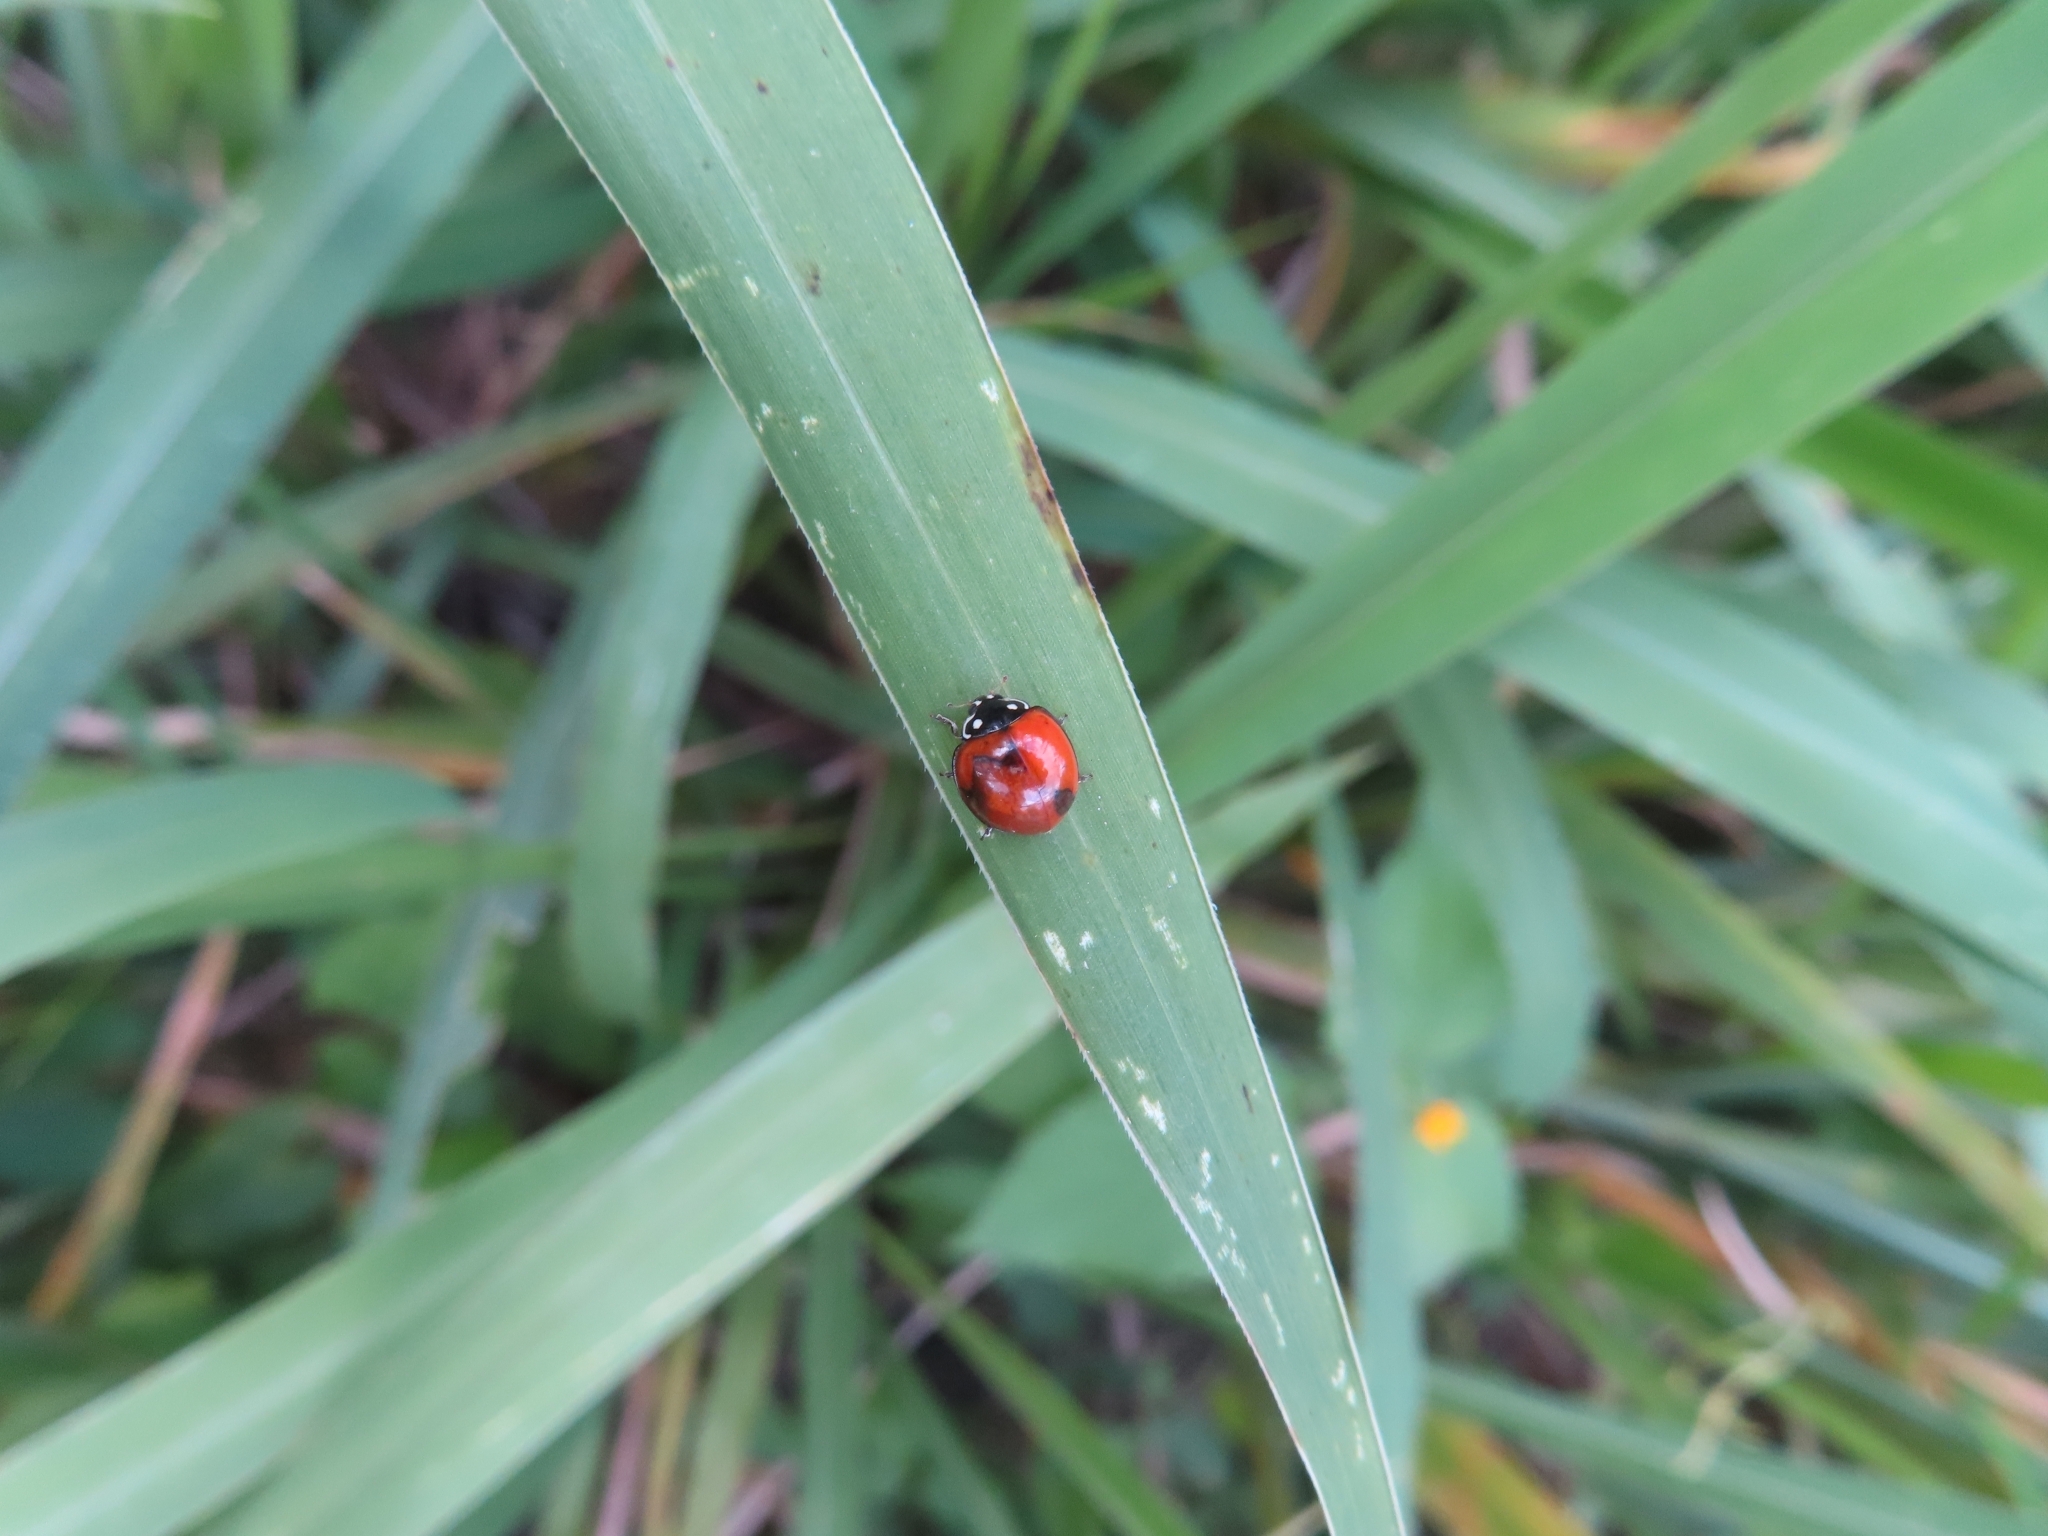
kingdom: Animalia
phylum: Arthropoda
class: Insecta
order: Coleoptera
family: Coccinellidae
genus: Cycloneda
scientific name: Cycloneda sanguinea
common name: Ladybird beetle
